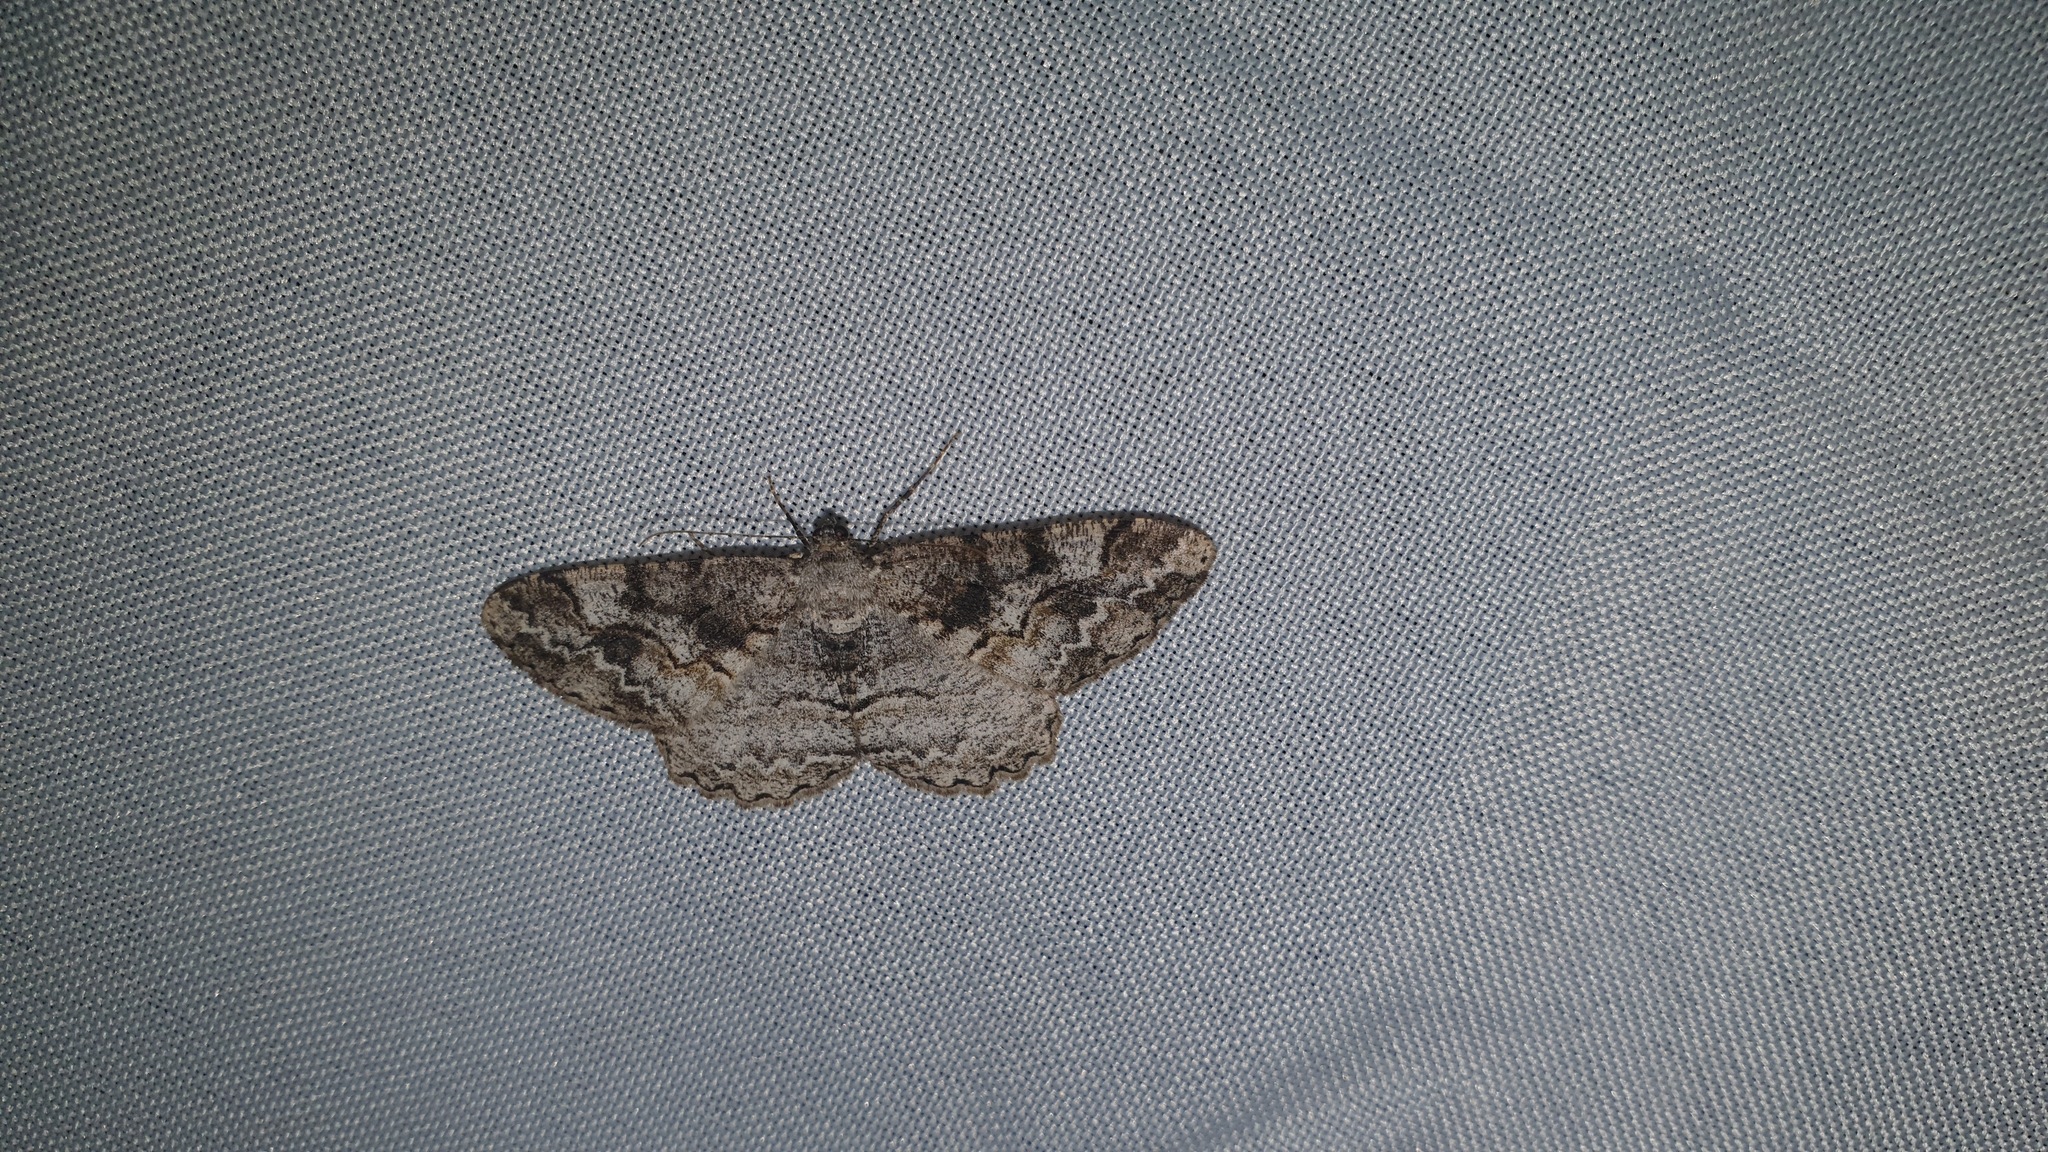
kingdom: Animalia
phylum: Arthropoda
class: Insecta
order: Lepidoptera
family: Geometridae
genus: Alcis
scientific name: Alcis repandata
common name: Mottled beauty
